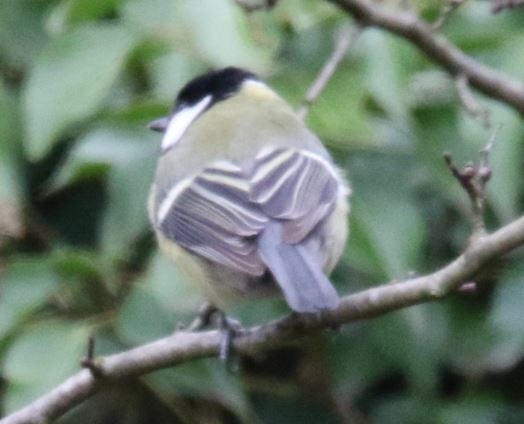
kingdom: Animalia
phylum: Chordata
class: Aves
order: Passeriformes
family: Paridae
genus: Parus
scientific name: Parus major
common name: Great tit
